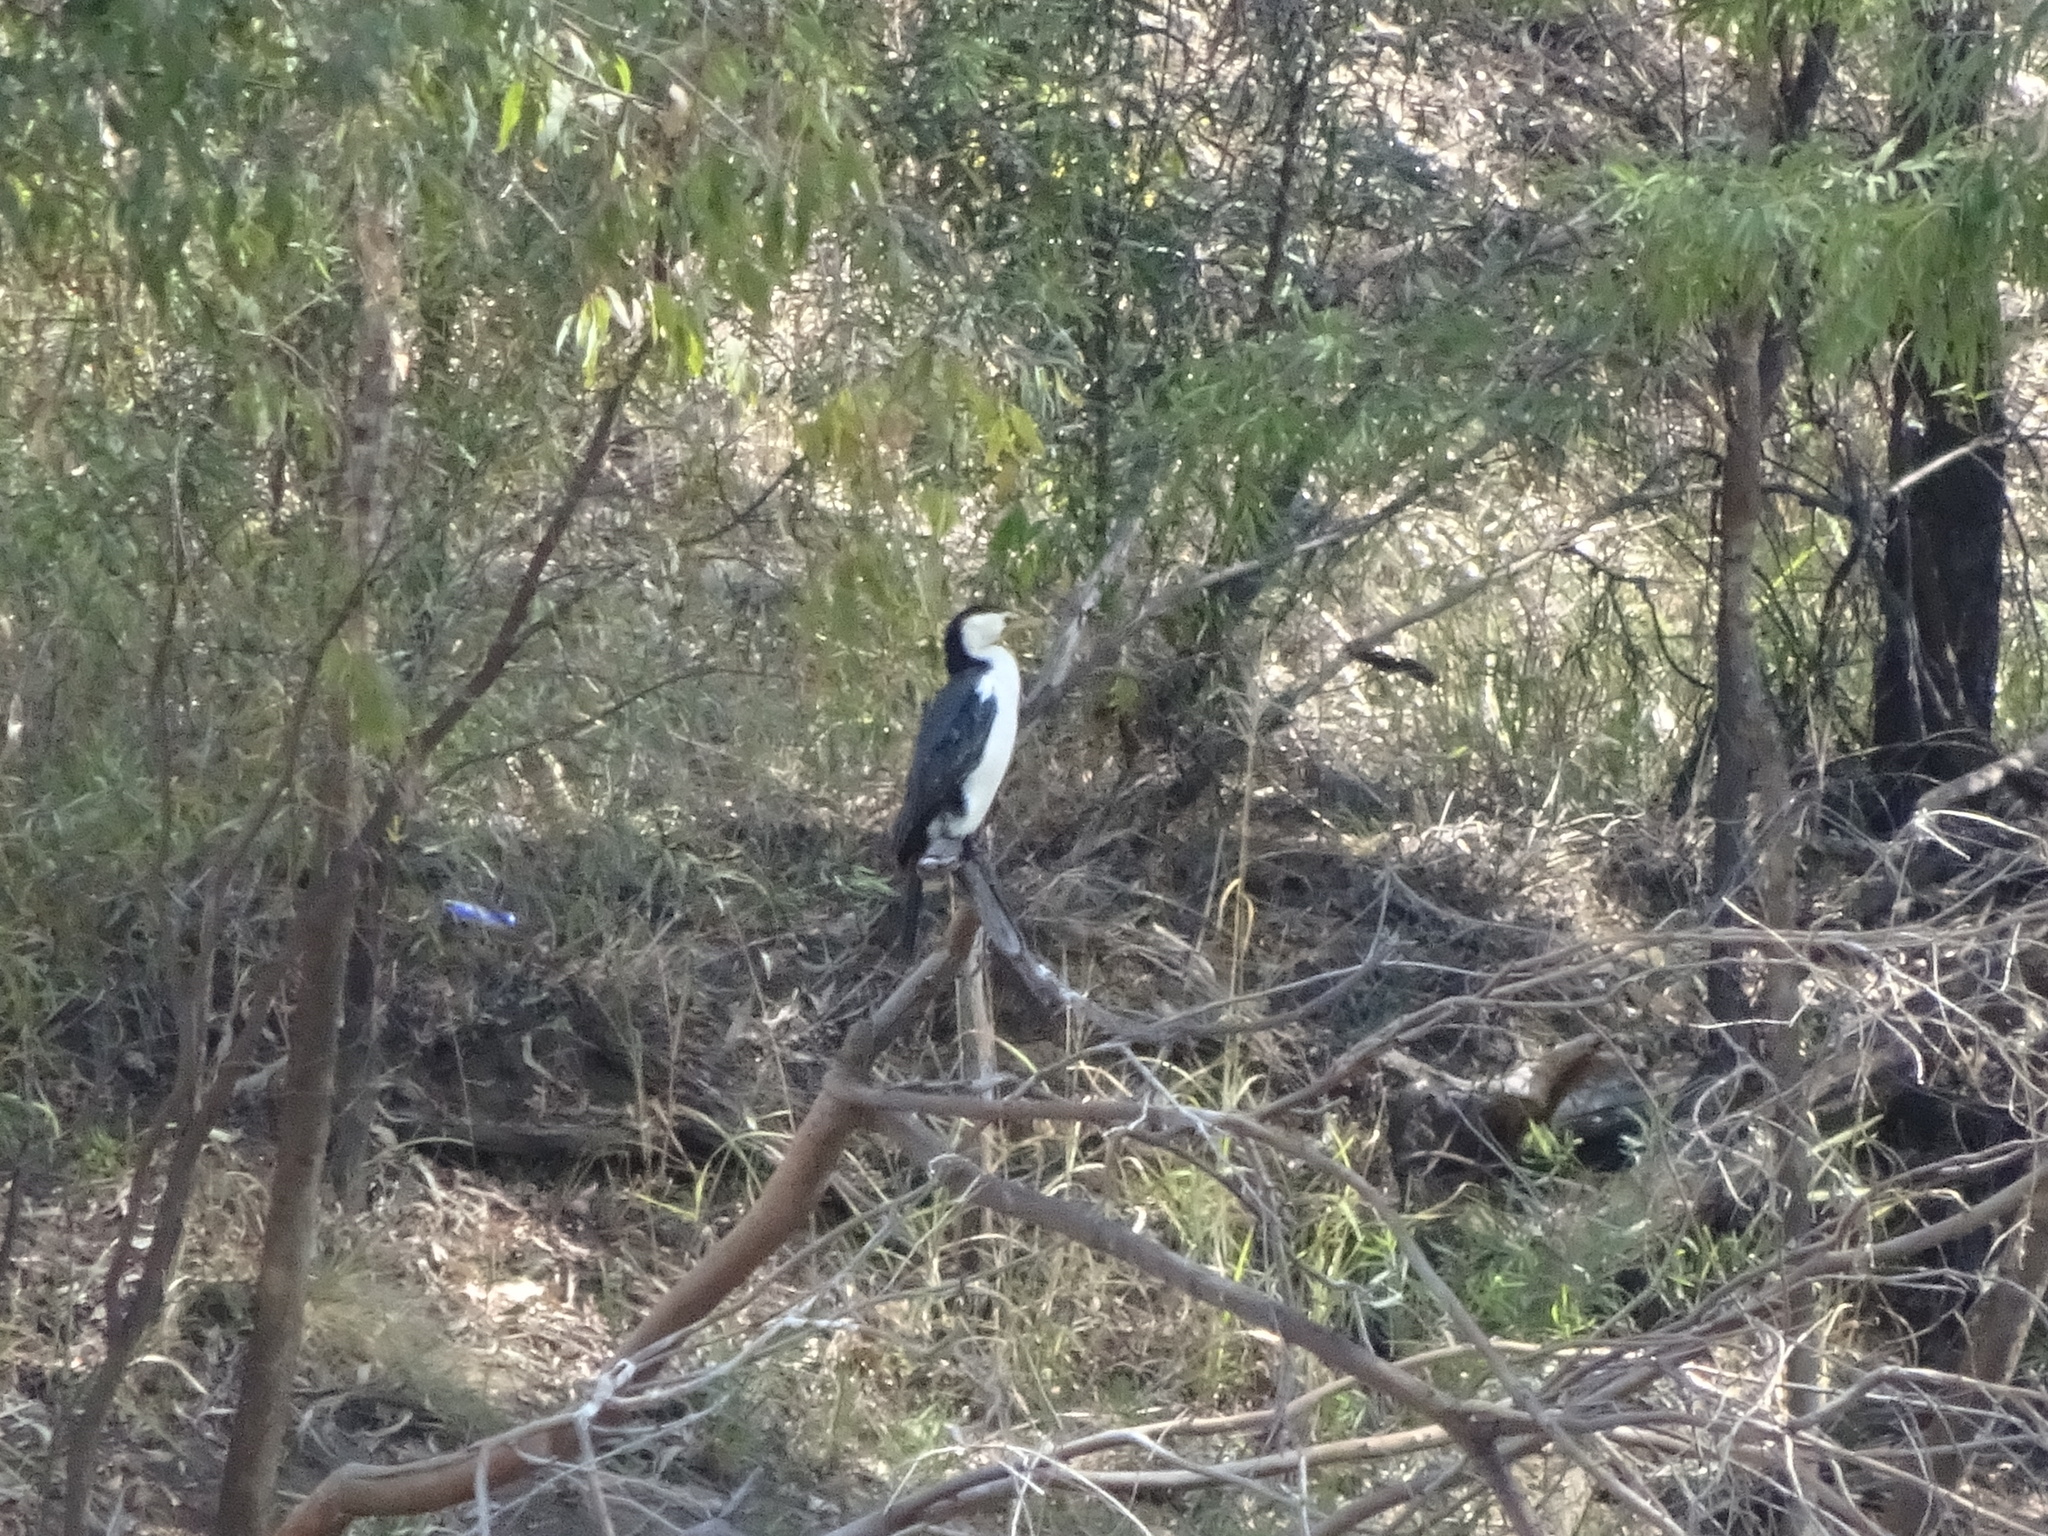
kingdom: Animalia
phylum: Chordata
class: Aves
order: Suliformes
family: Phalacrocoracidae
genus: Microcarbo
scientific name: Microcarbo melanoleucos
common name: Little pied cormorant
